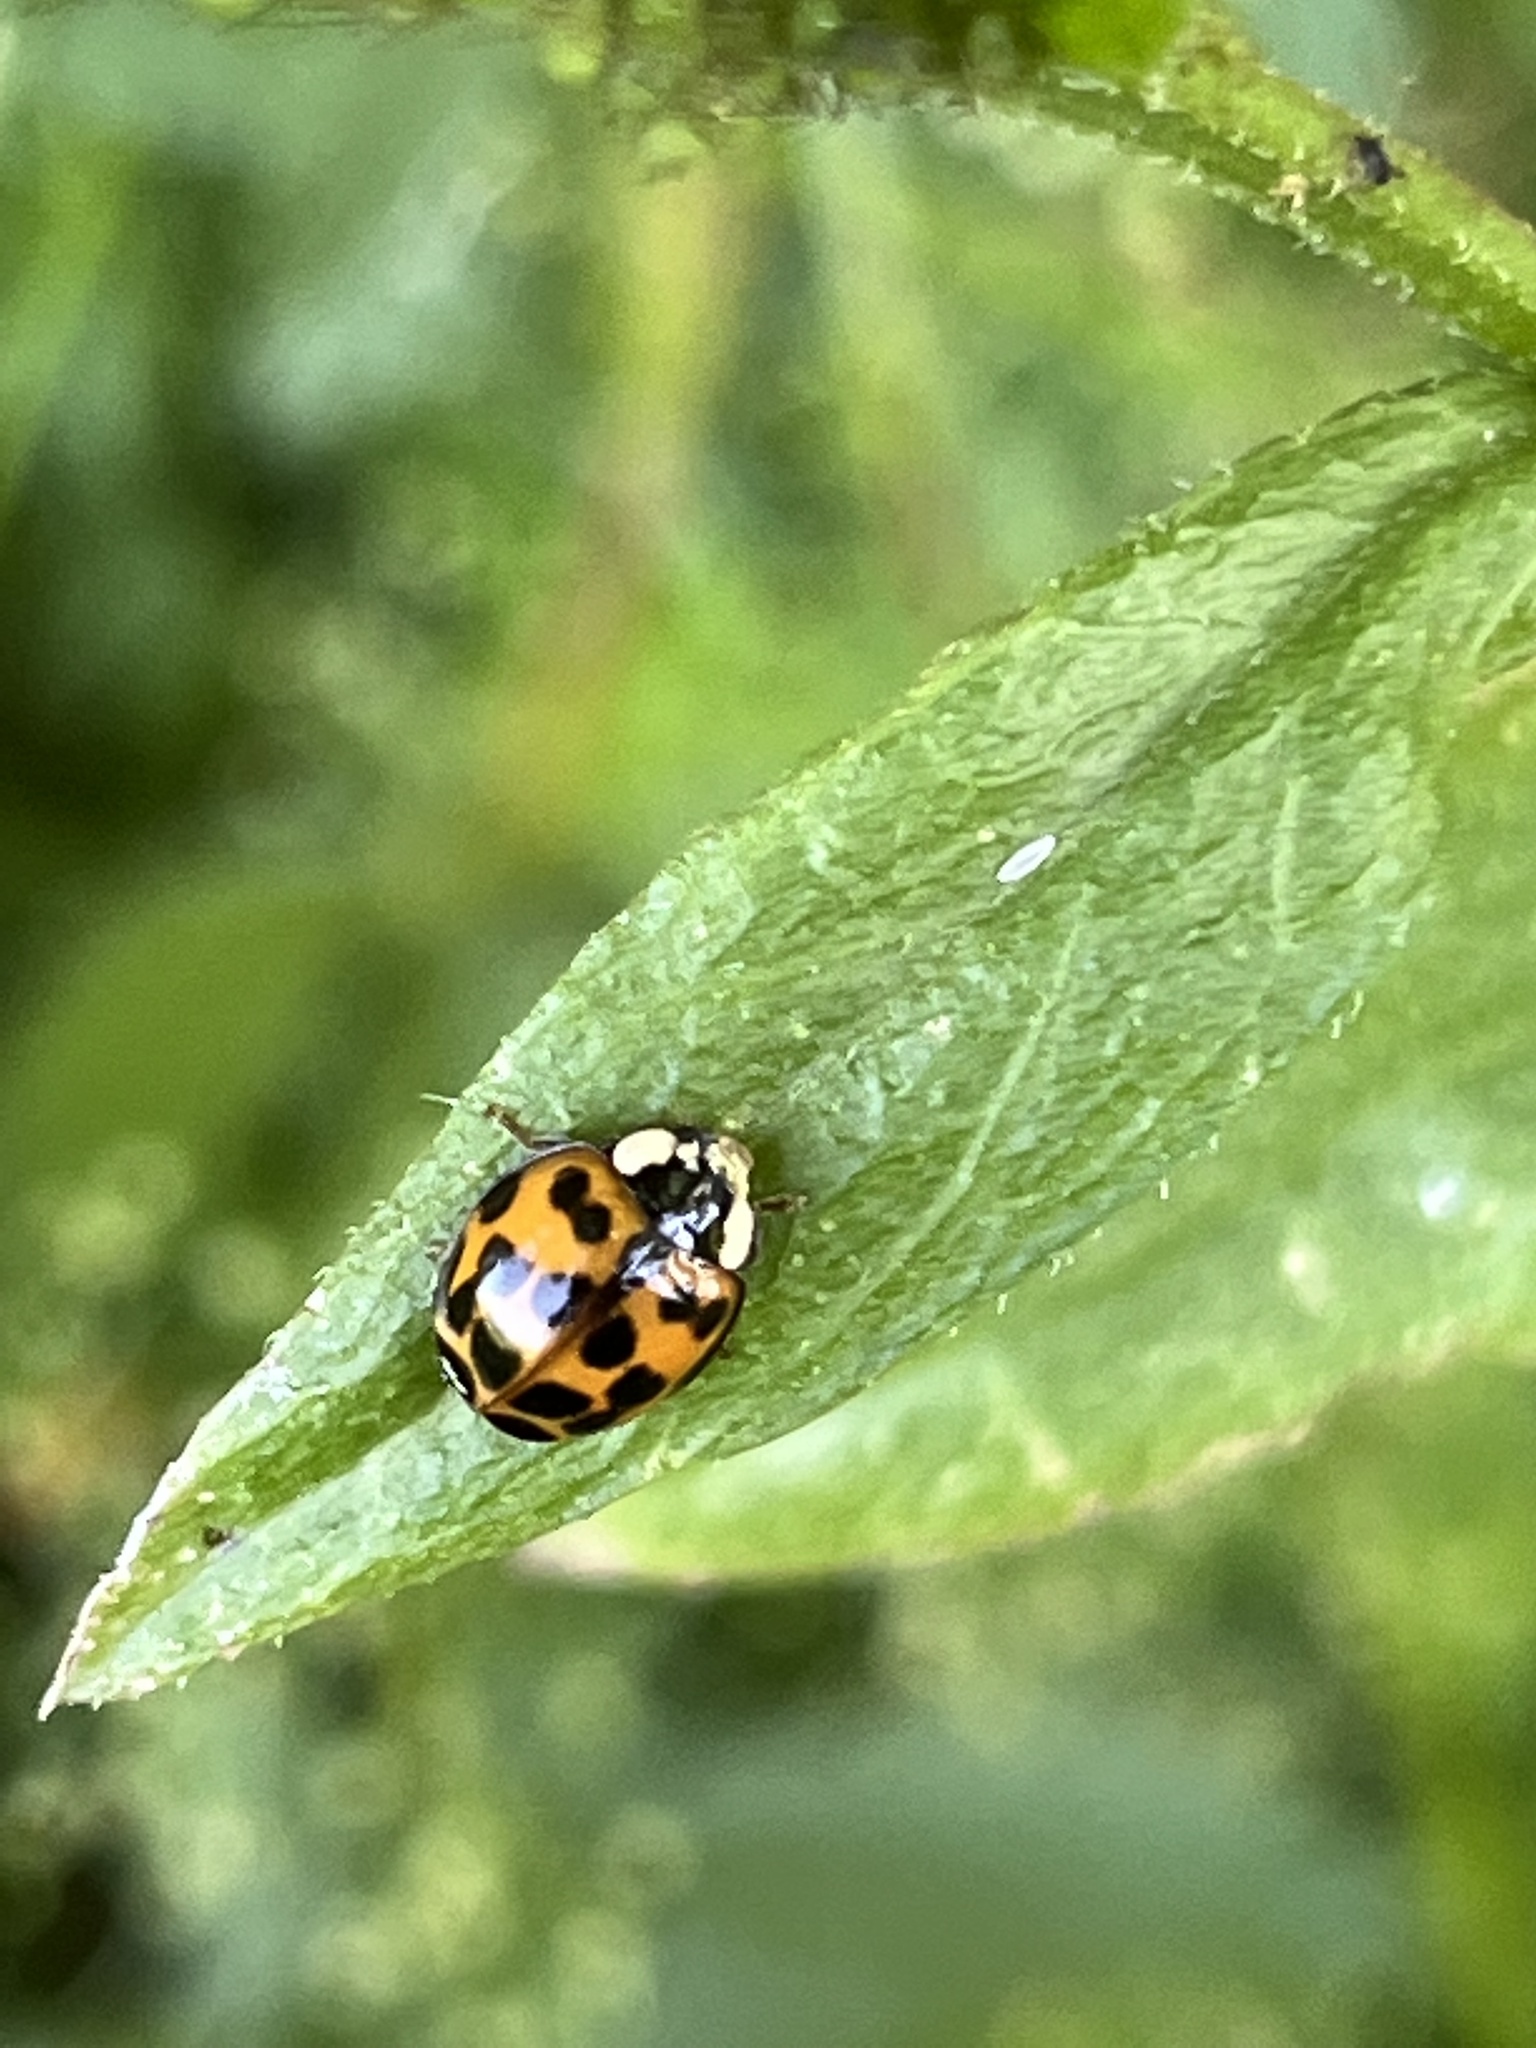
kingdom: Animalia
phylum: Arthropoda
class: Insecta
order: Coleoptera
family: Coccinellidae
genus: Harmonia
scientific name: Harmonia axyridis
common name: Harlequin ladybird
